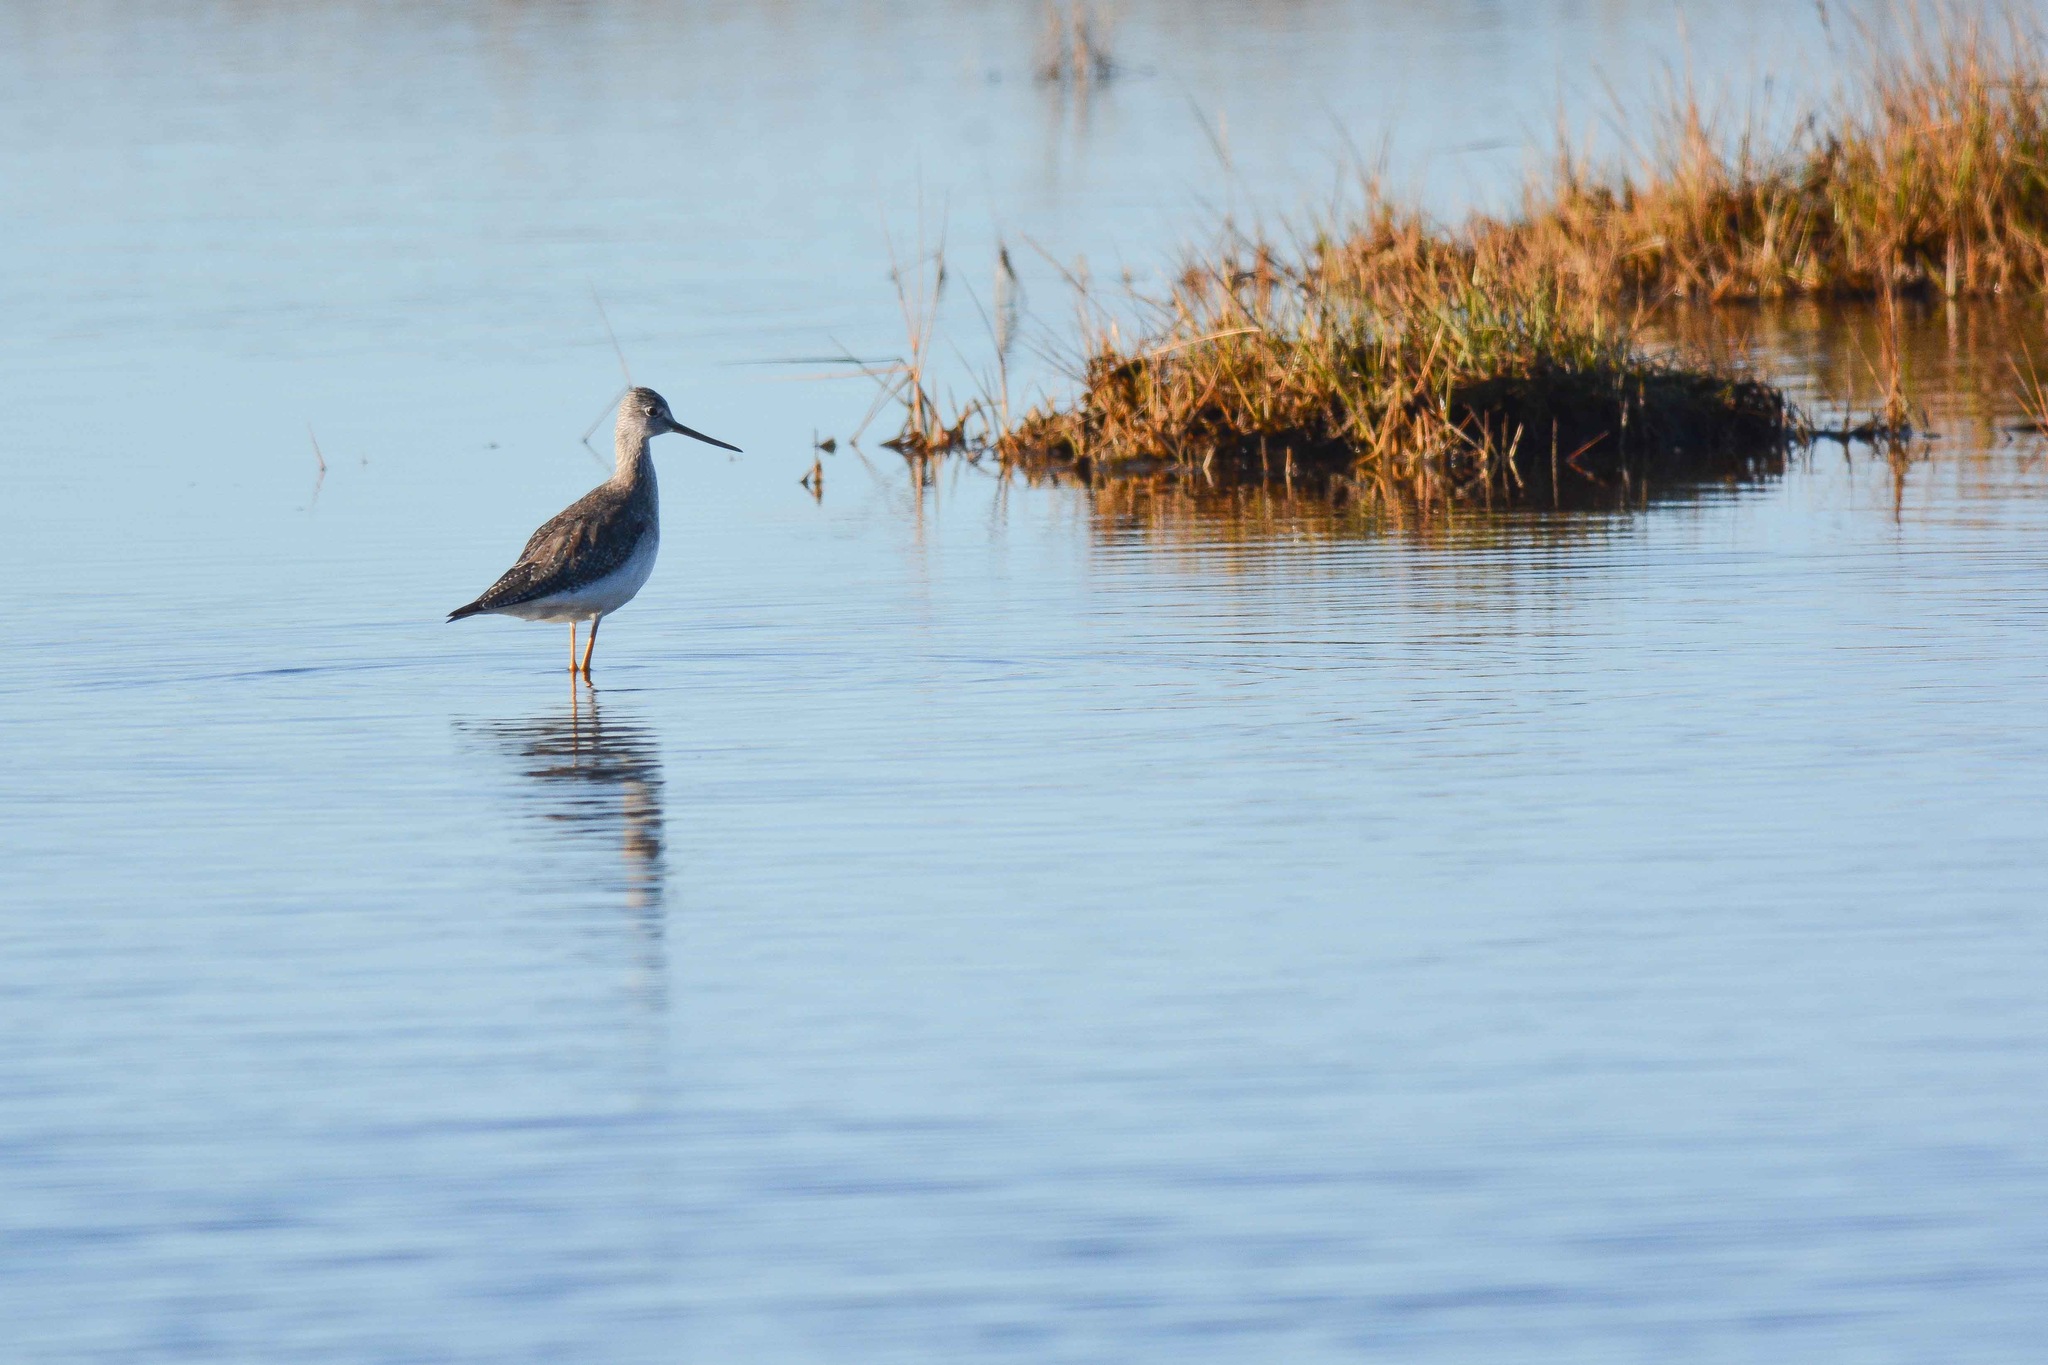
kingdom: Animalia
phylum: Chordata
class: Aves
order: Charadriiformes
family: Scolopacidae
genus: Tringa
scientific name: Tringa melanoleuca
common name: Greater yellowlegs
